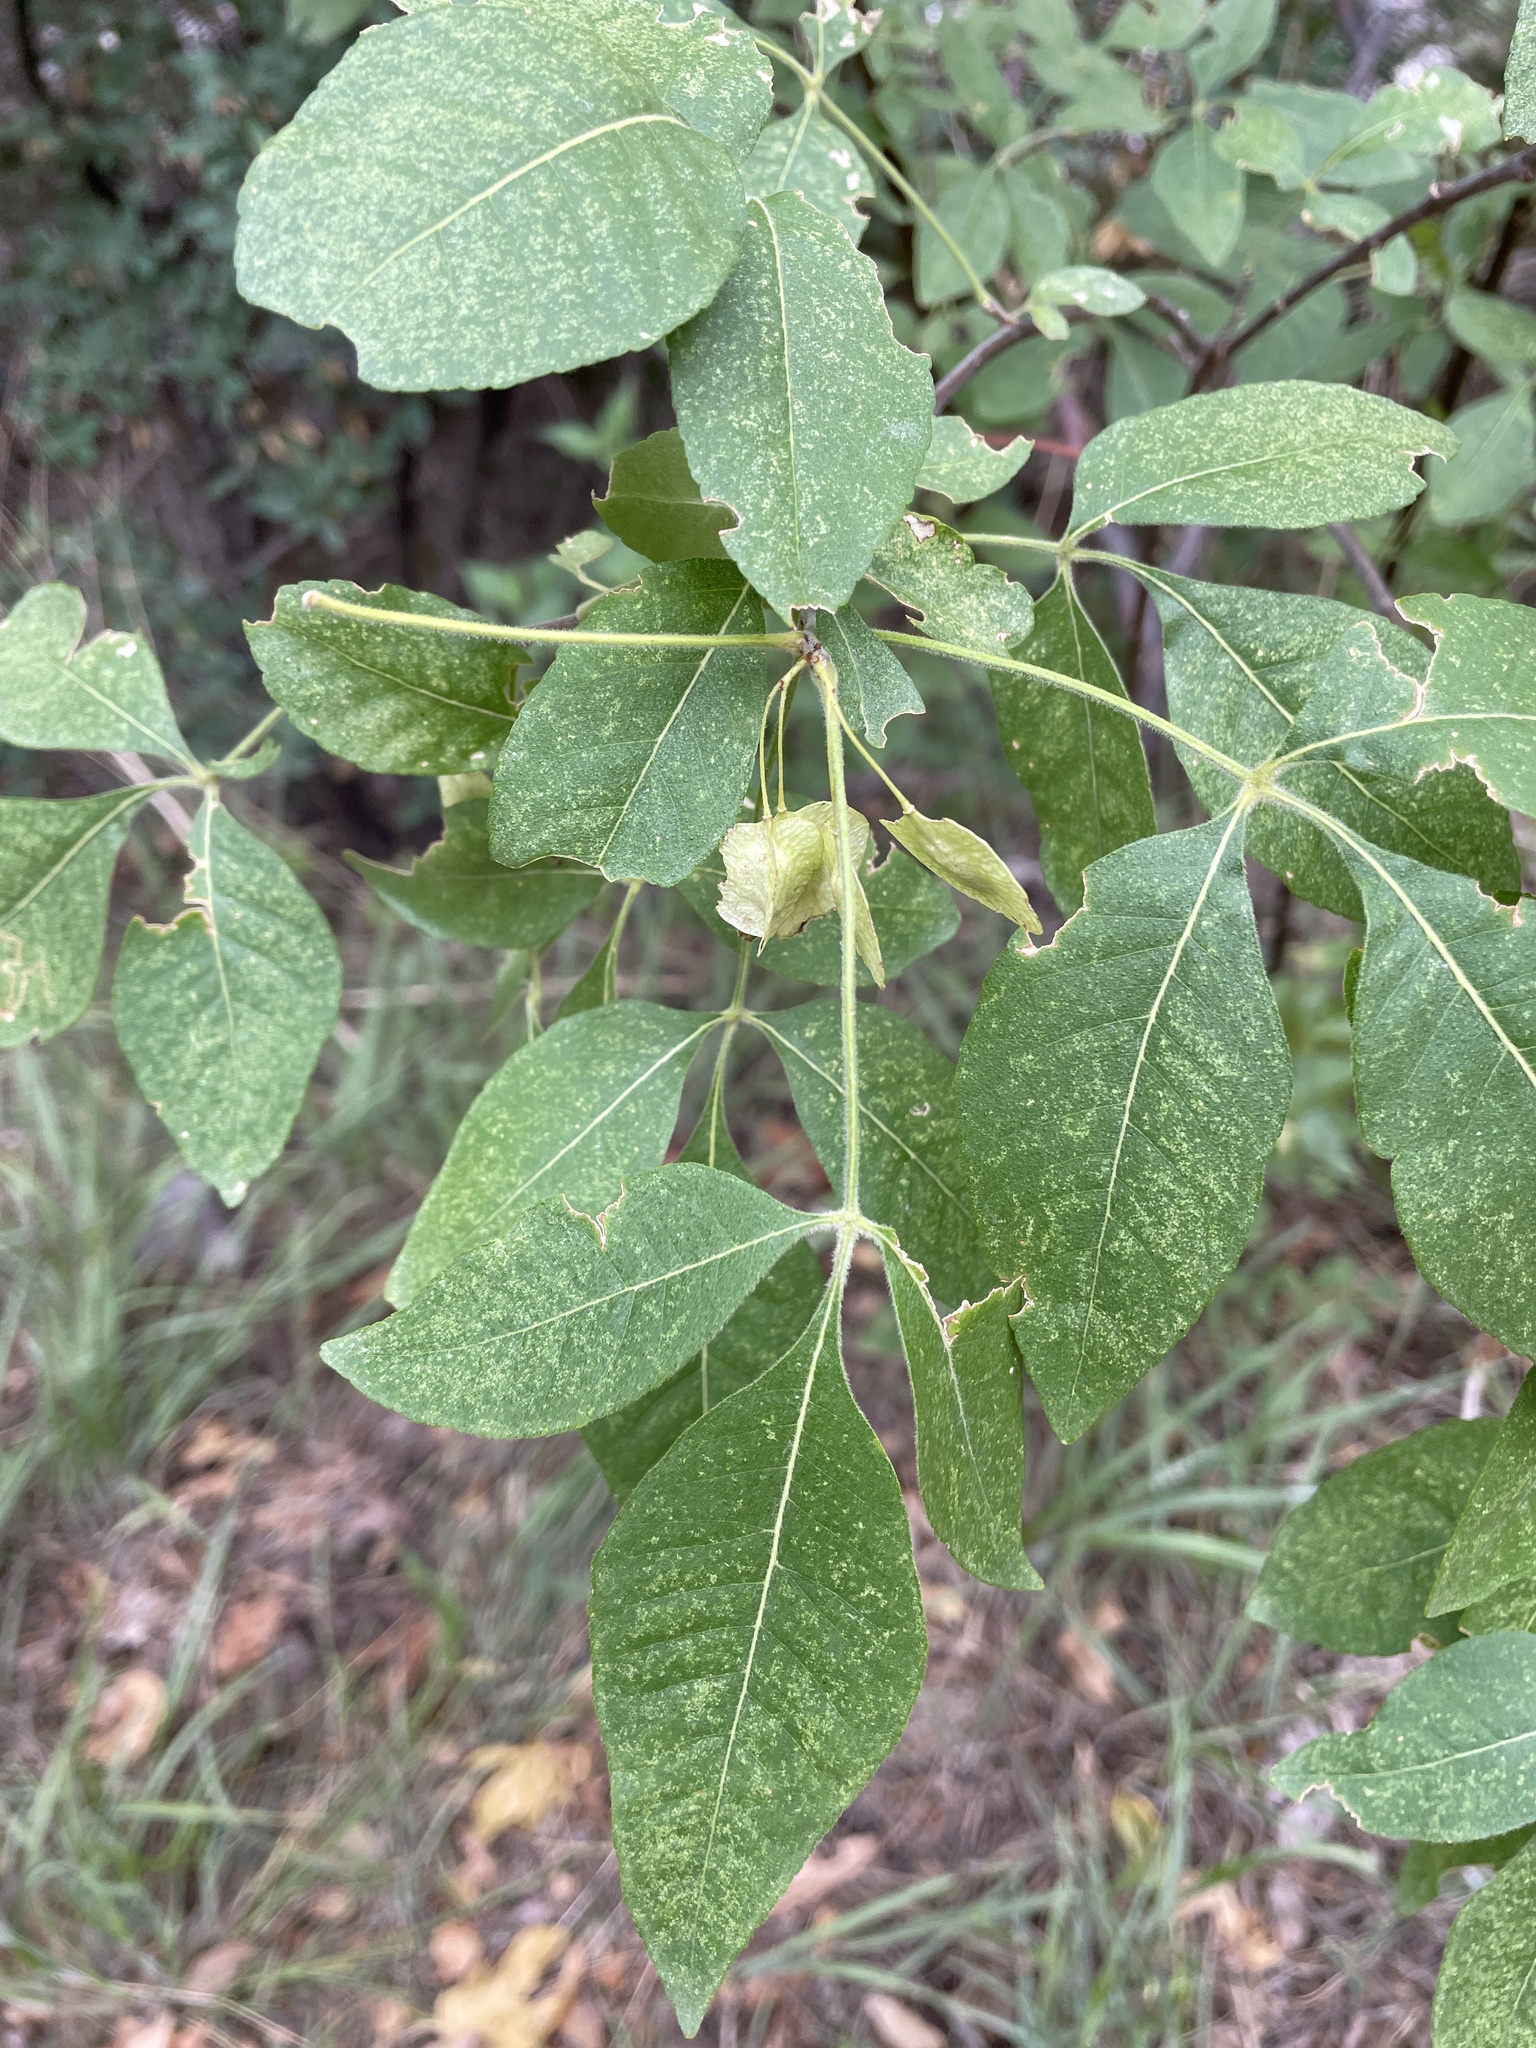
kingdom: Plantae
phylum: Tracheophyta
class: Magnoliopsida
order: Sapindales
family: Rutaceae
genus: Ptelea
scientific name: Ptelea trifoliata
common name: Common hop-tree
